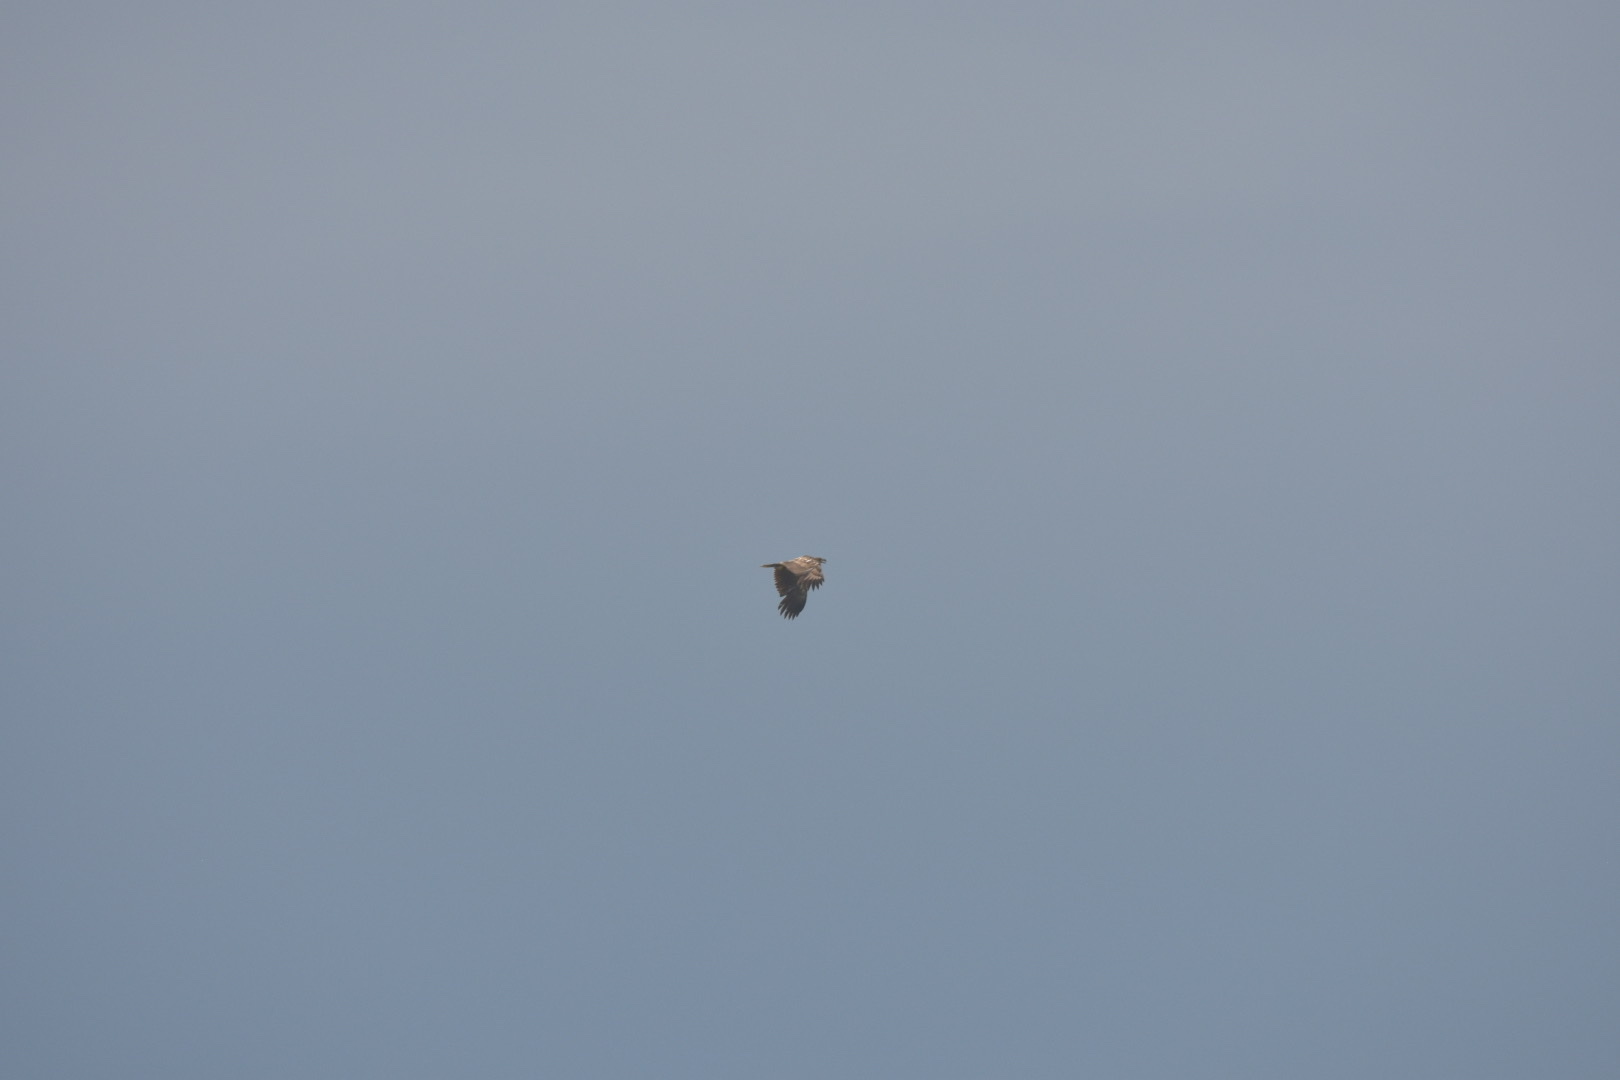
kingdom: Animalia
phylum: Chordata
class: Aves
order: Accipitriformes
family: Accipitridae
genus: Haliaeetus
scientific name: Haliaeetus albicilla
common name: White-tailed eagle
